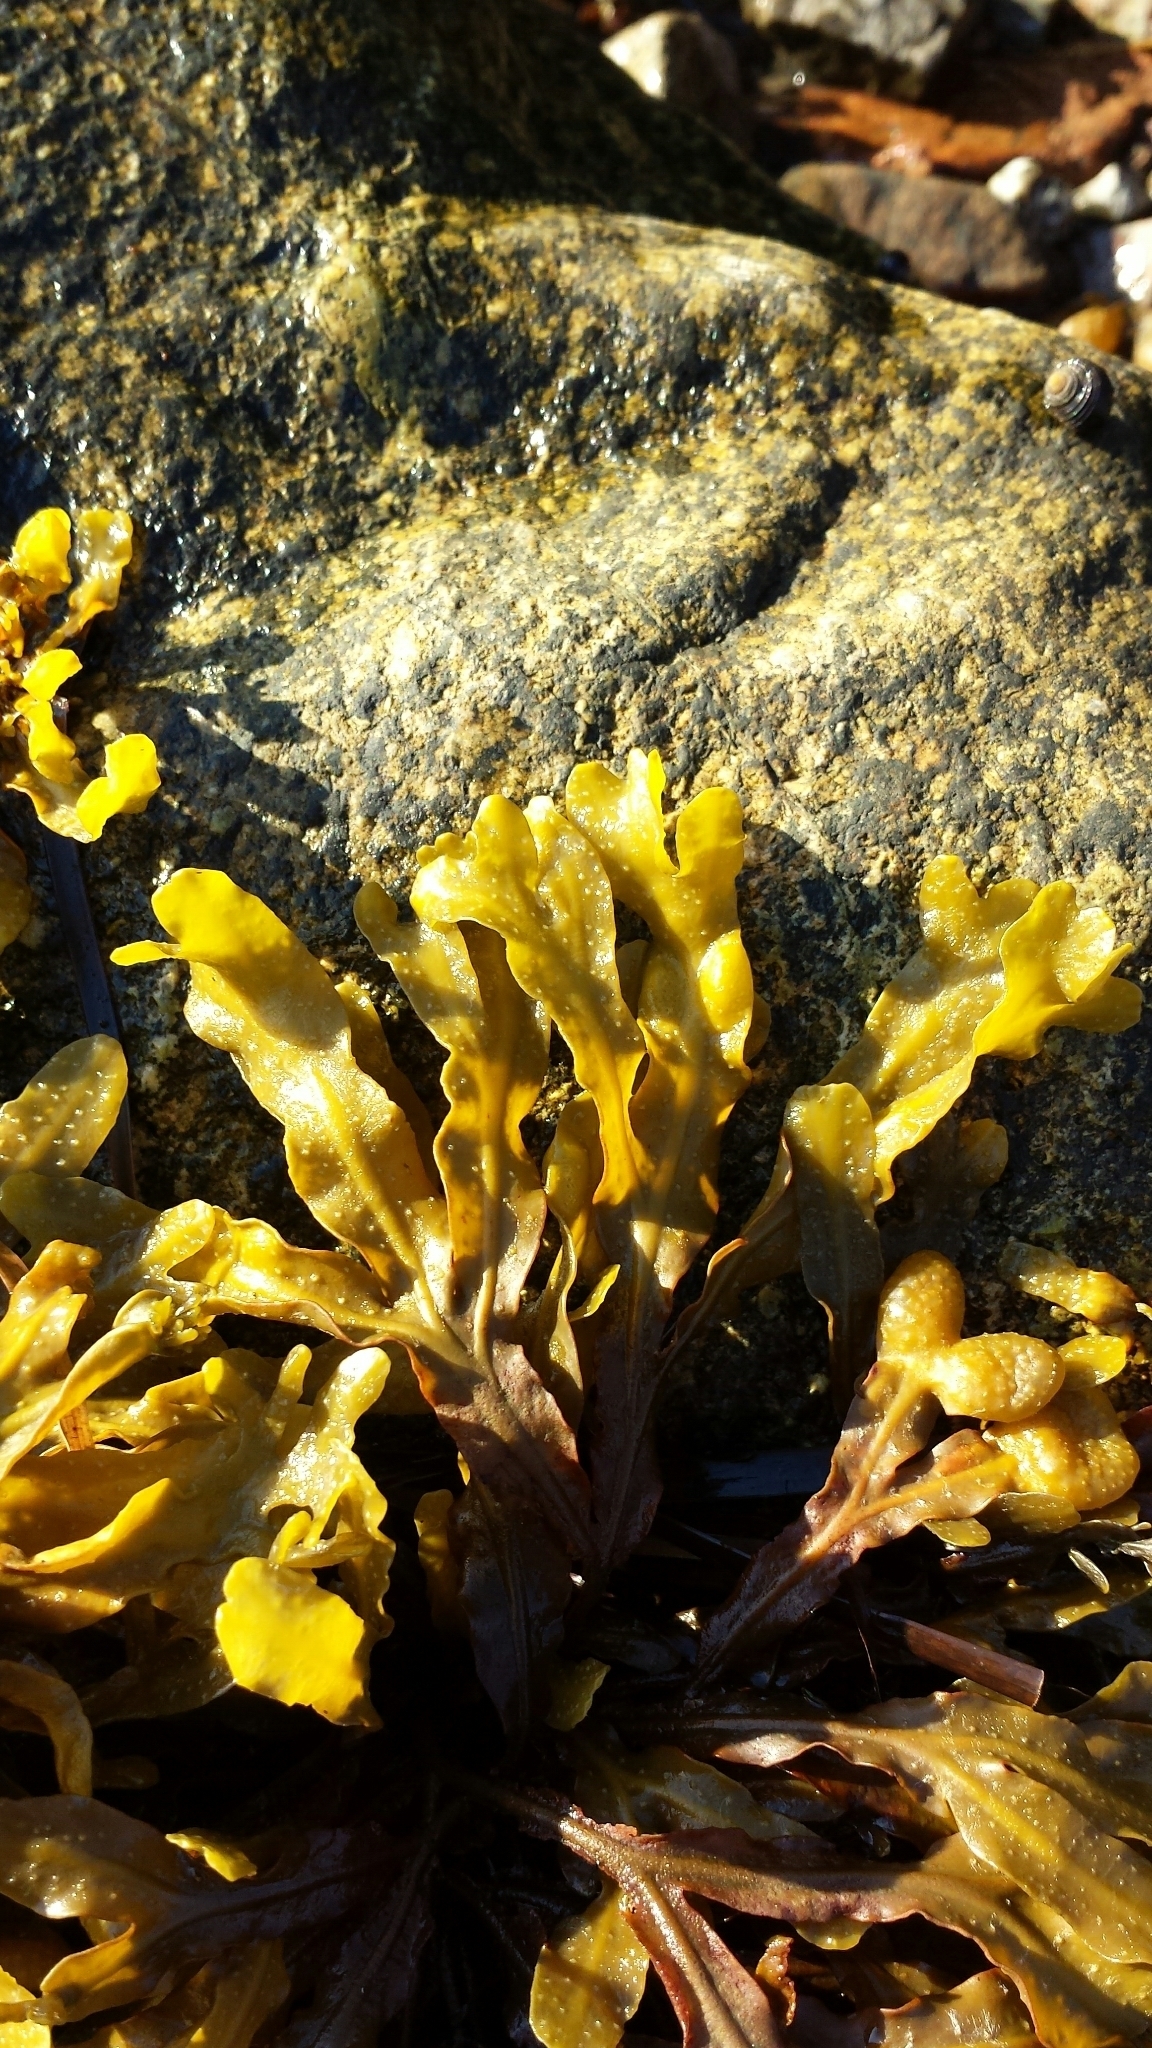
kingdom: Chromista
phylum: Ochrophyta
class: Phaeophyceae
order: Fucales
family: Fucaceae
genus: Fucus
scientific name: Fucus spiralis
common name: Spiral wrack
